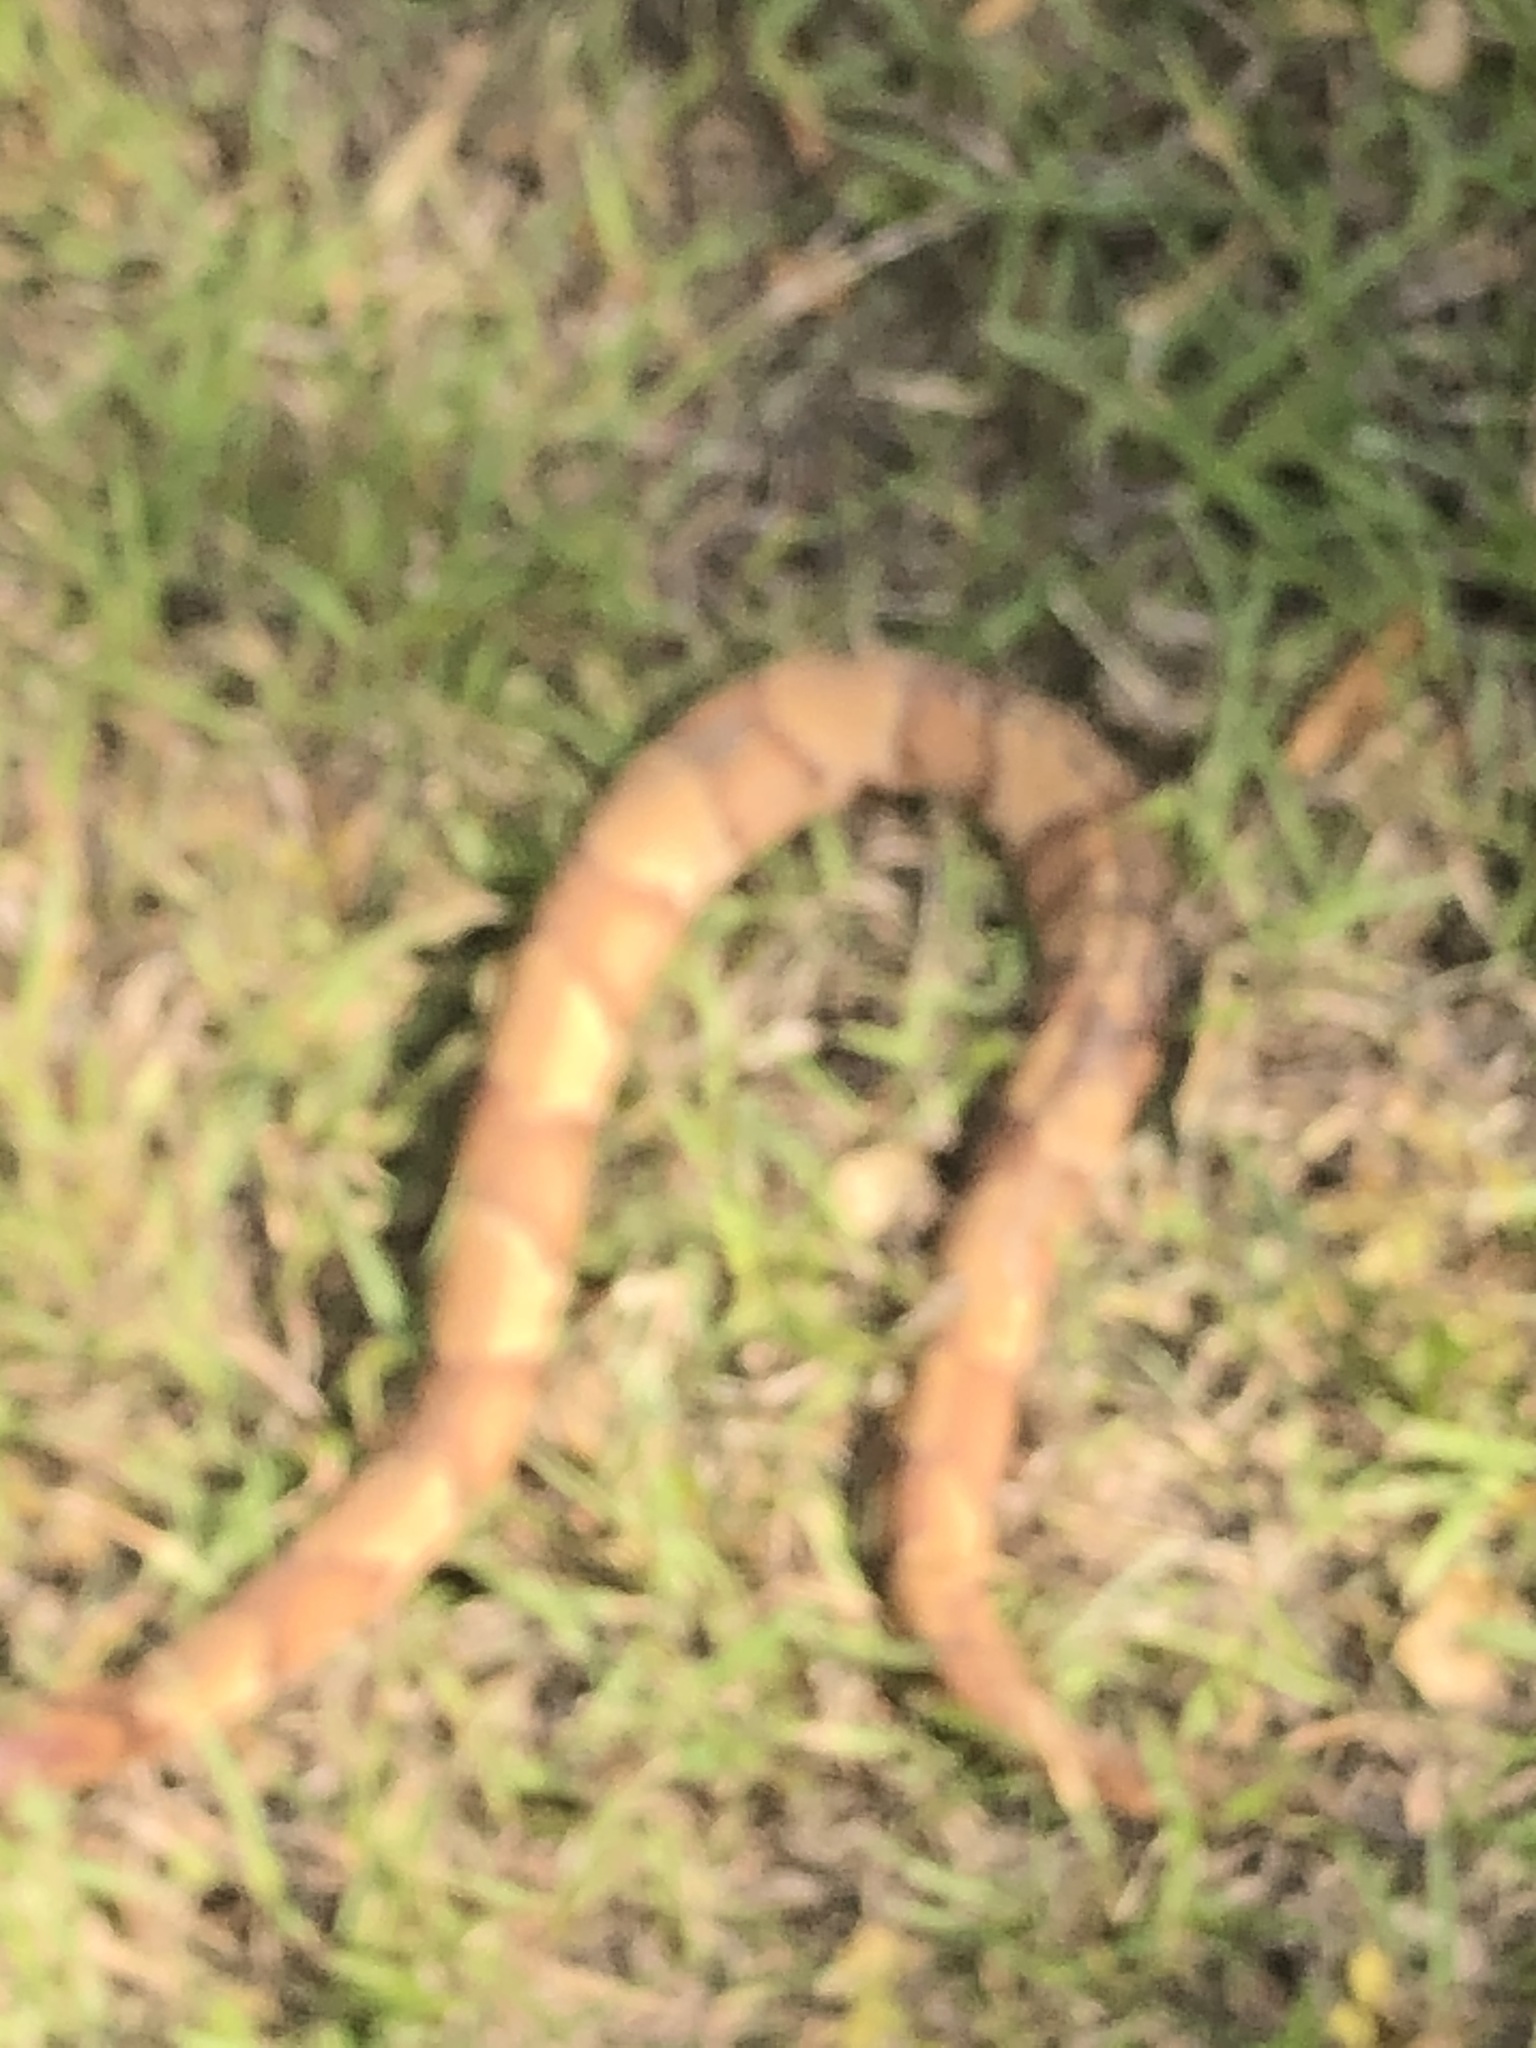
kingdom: Animalia
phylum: Chordata
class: Squamata
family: Viperidae
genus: Agkistrodon
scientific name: Agkistrodon laticinctus
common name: Broad-banded copperhead
